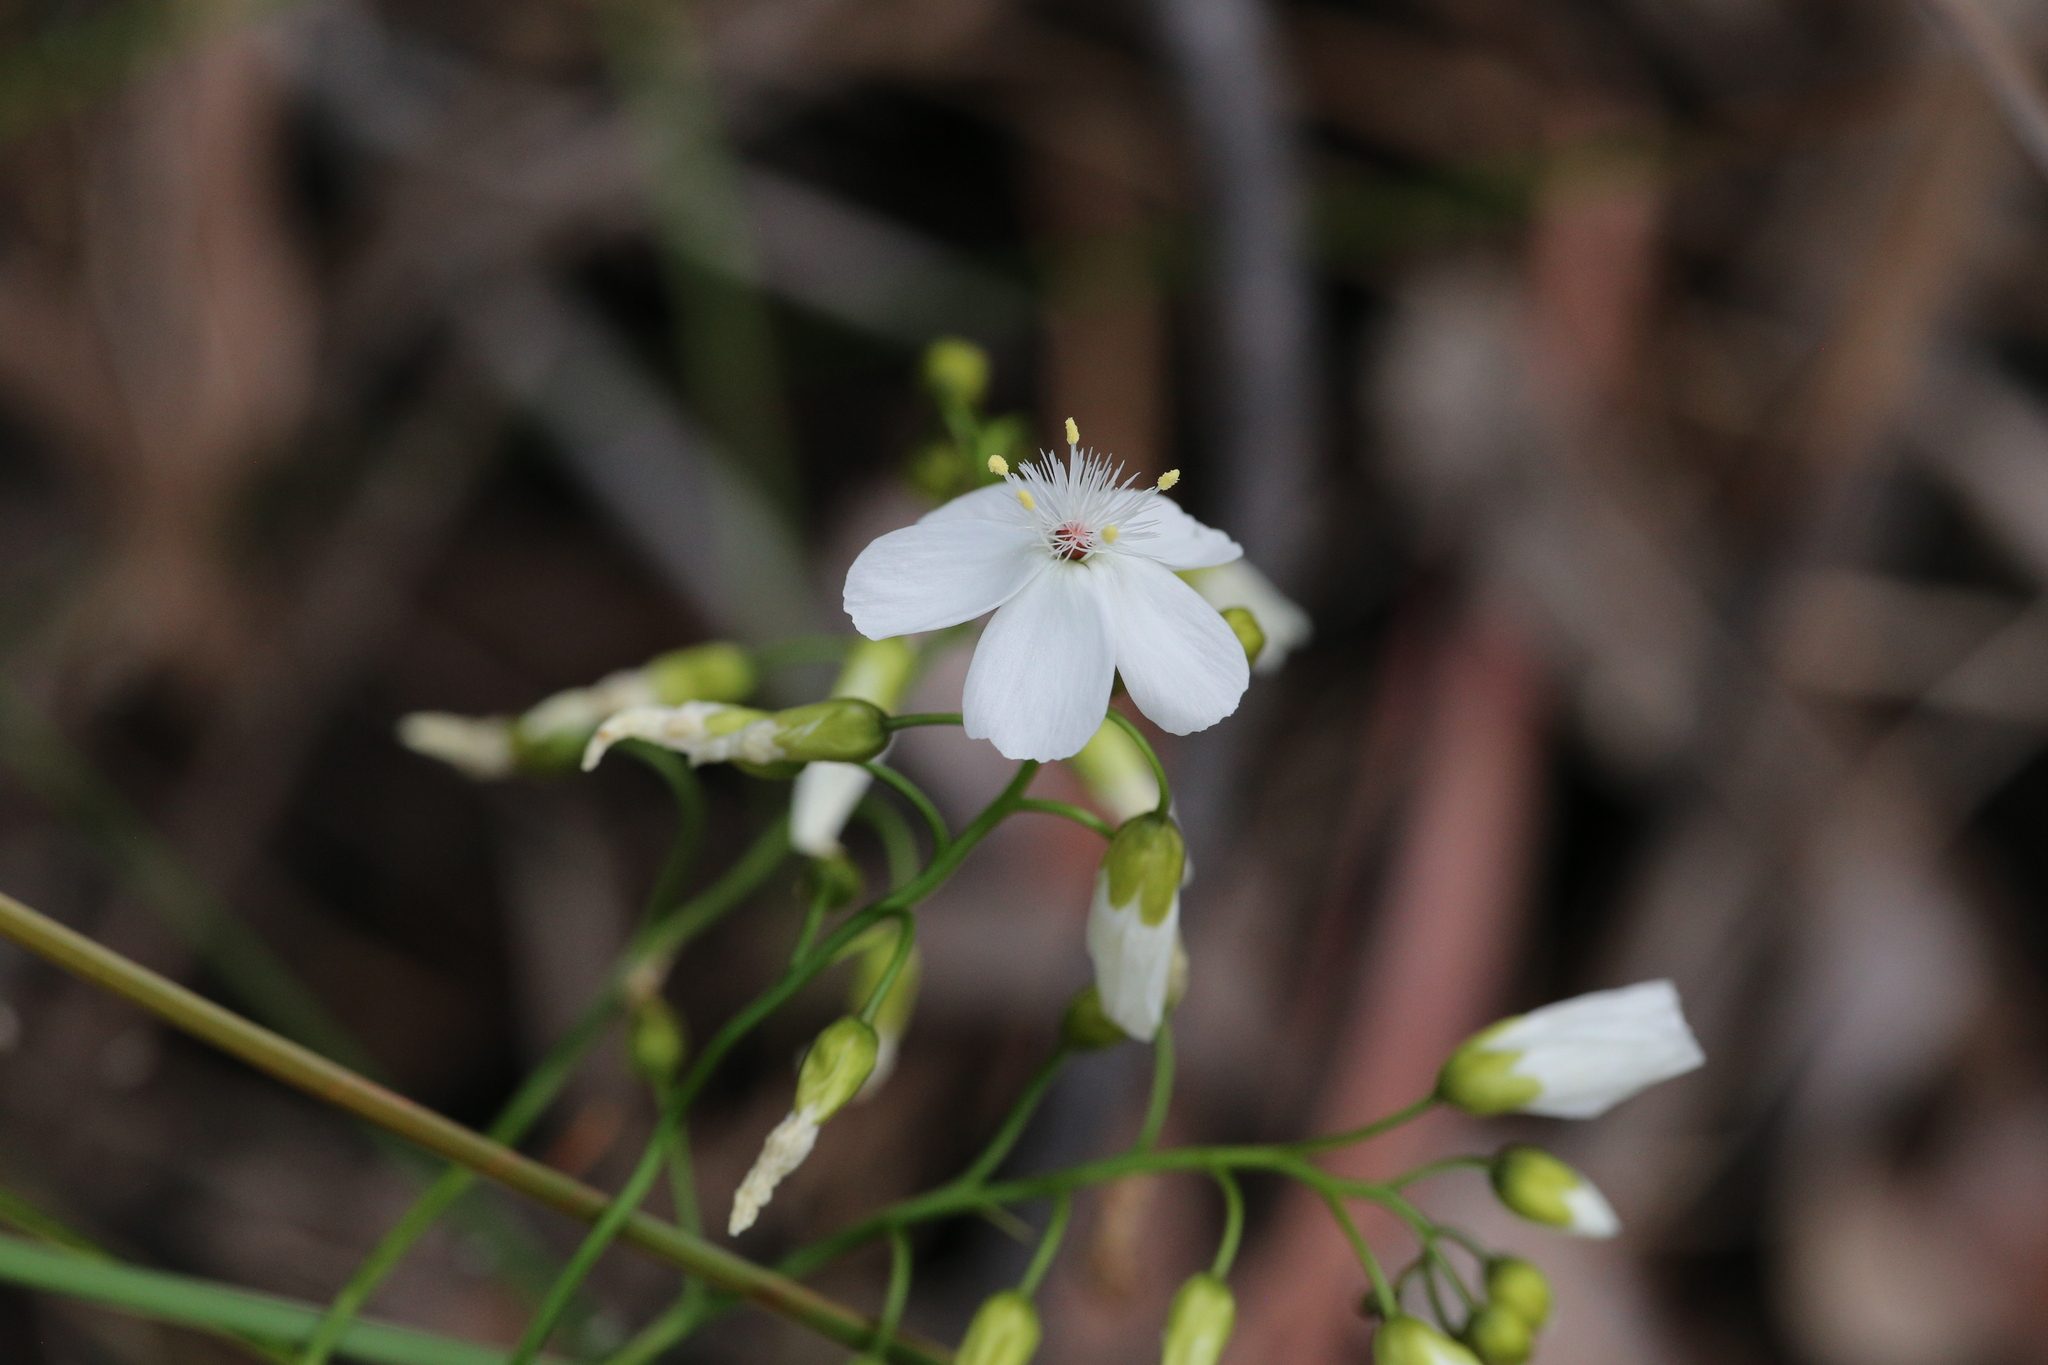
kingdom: Plantae
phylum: Tracheophyta
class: Magnoliopsida
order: Caryophyllales
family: Droseraceae
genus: Drosera
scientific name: Drosera pallida
